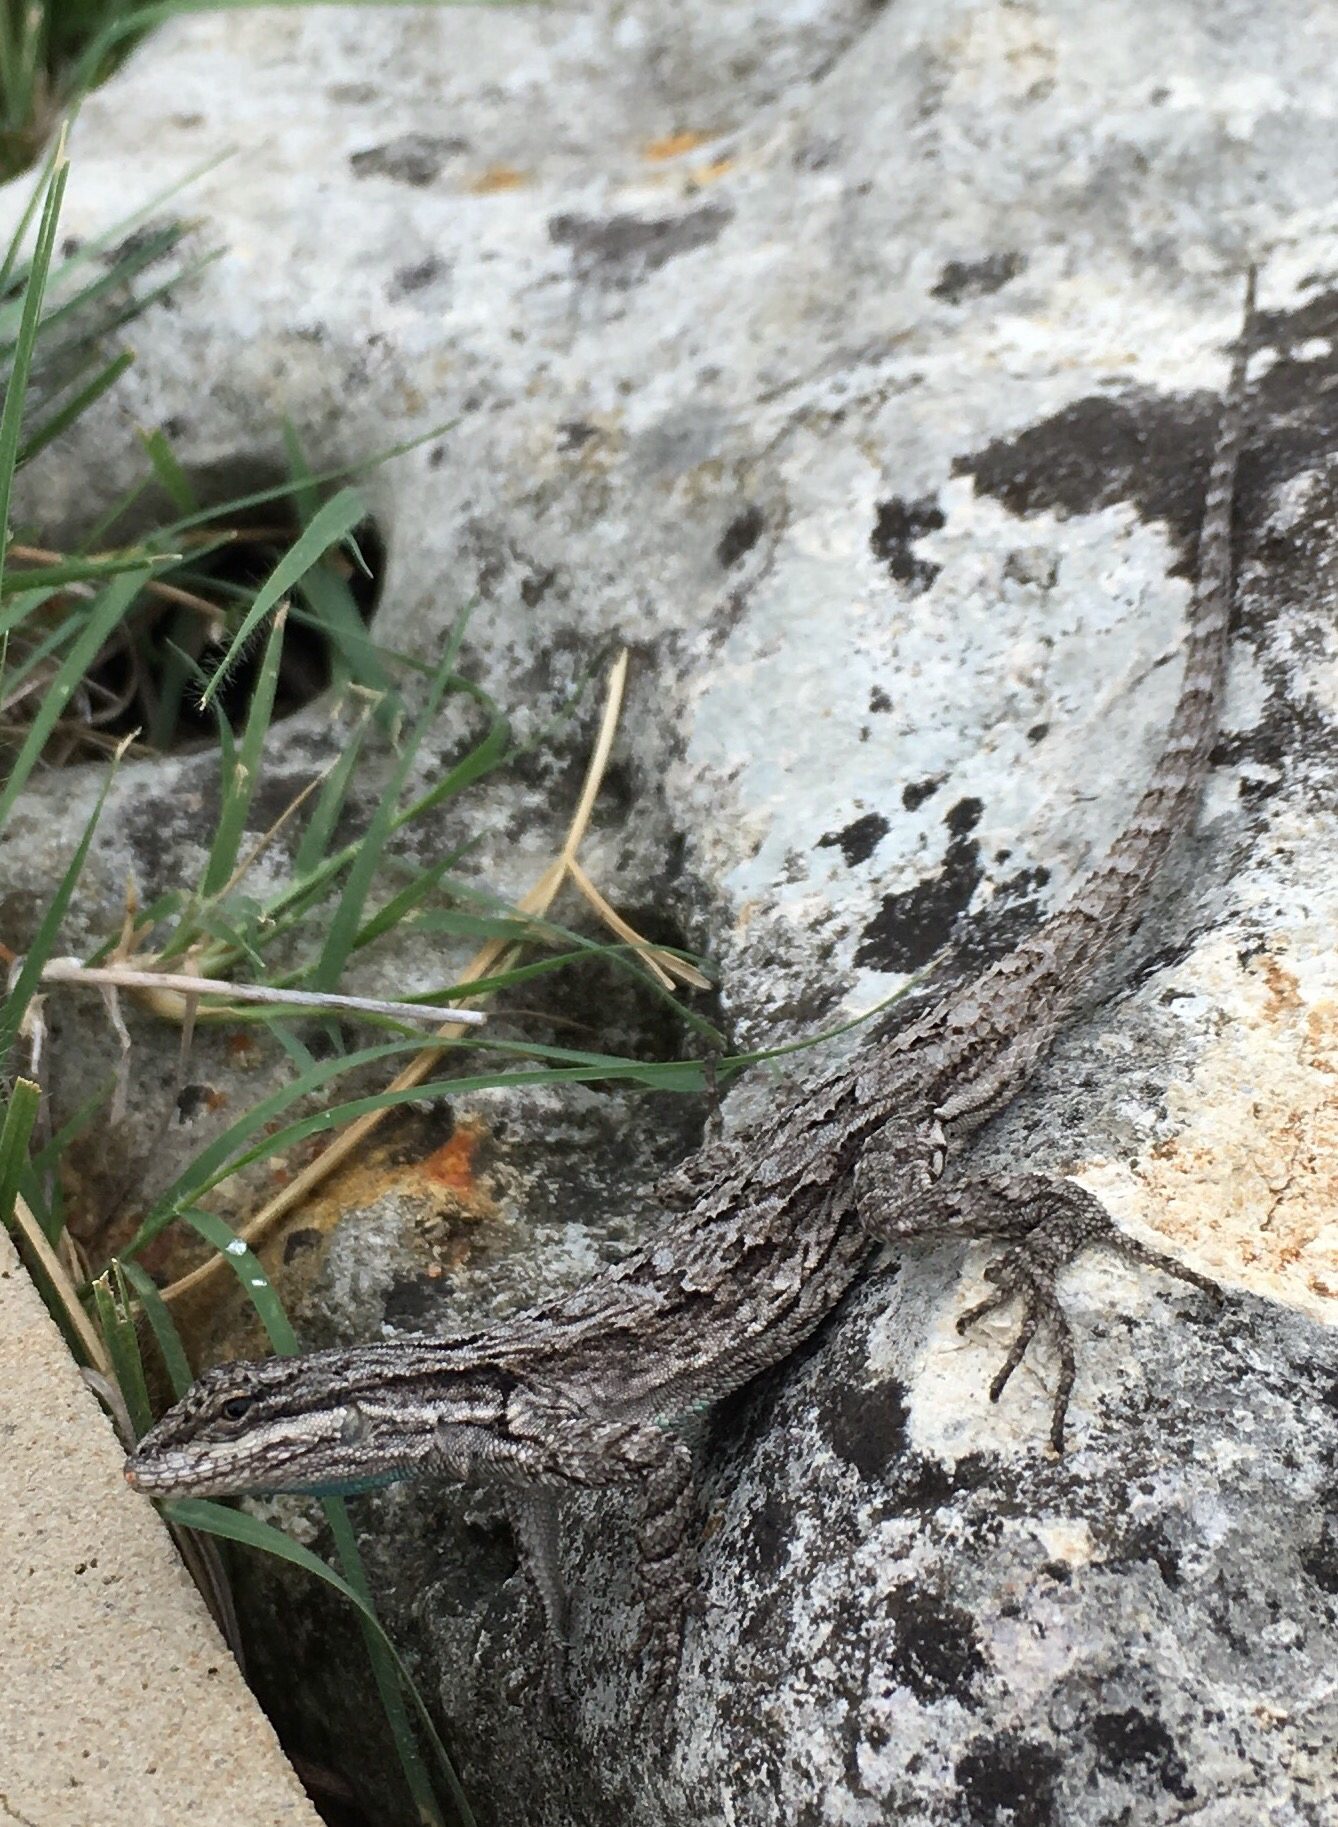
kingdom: Animalia
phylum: Chordata
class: Squamata
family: Phrynosomatidae
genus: Urosaurus
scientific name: Urosaurus ornatus
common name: Ornate tree lizard
